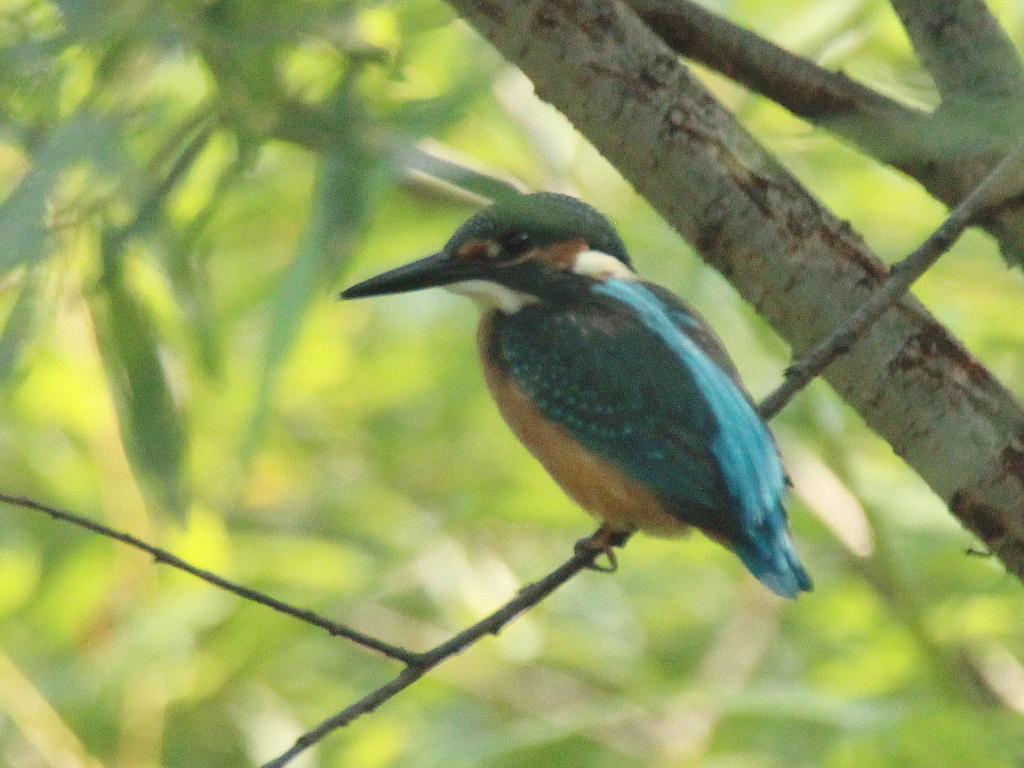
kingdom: Animalia
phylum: Chordata
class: Aves
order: Coraciiformes
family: Alcedinidae
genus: Alcedo
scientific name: Alcedo atthis
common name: Common kingfisher
